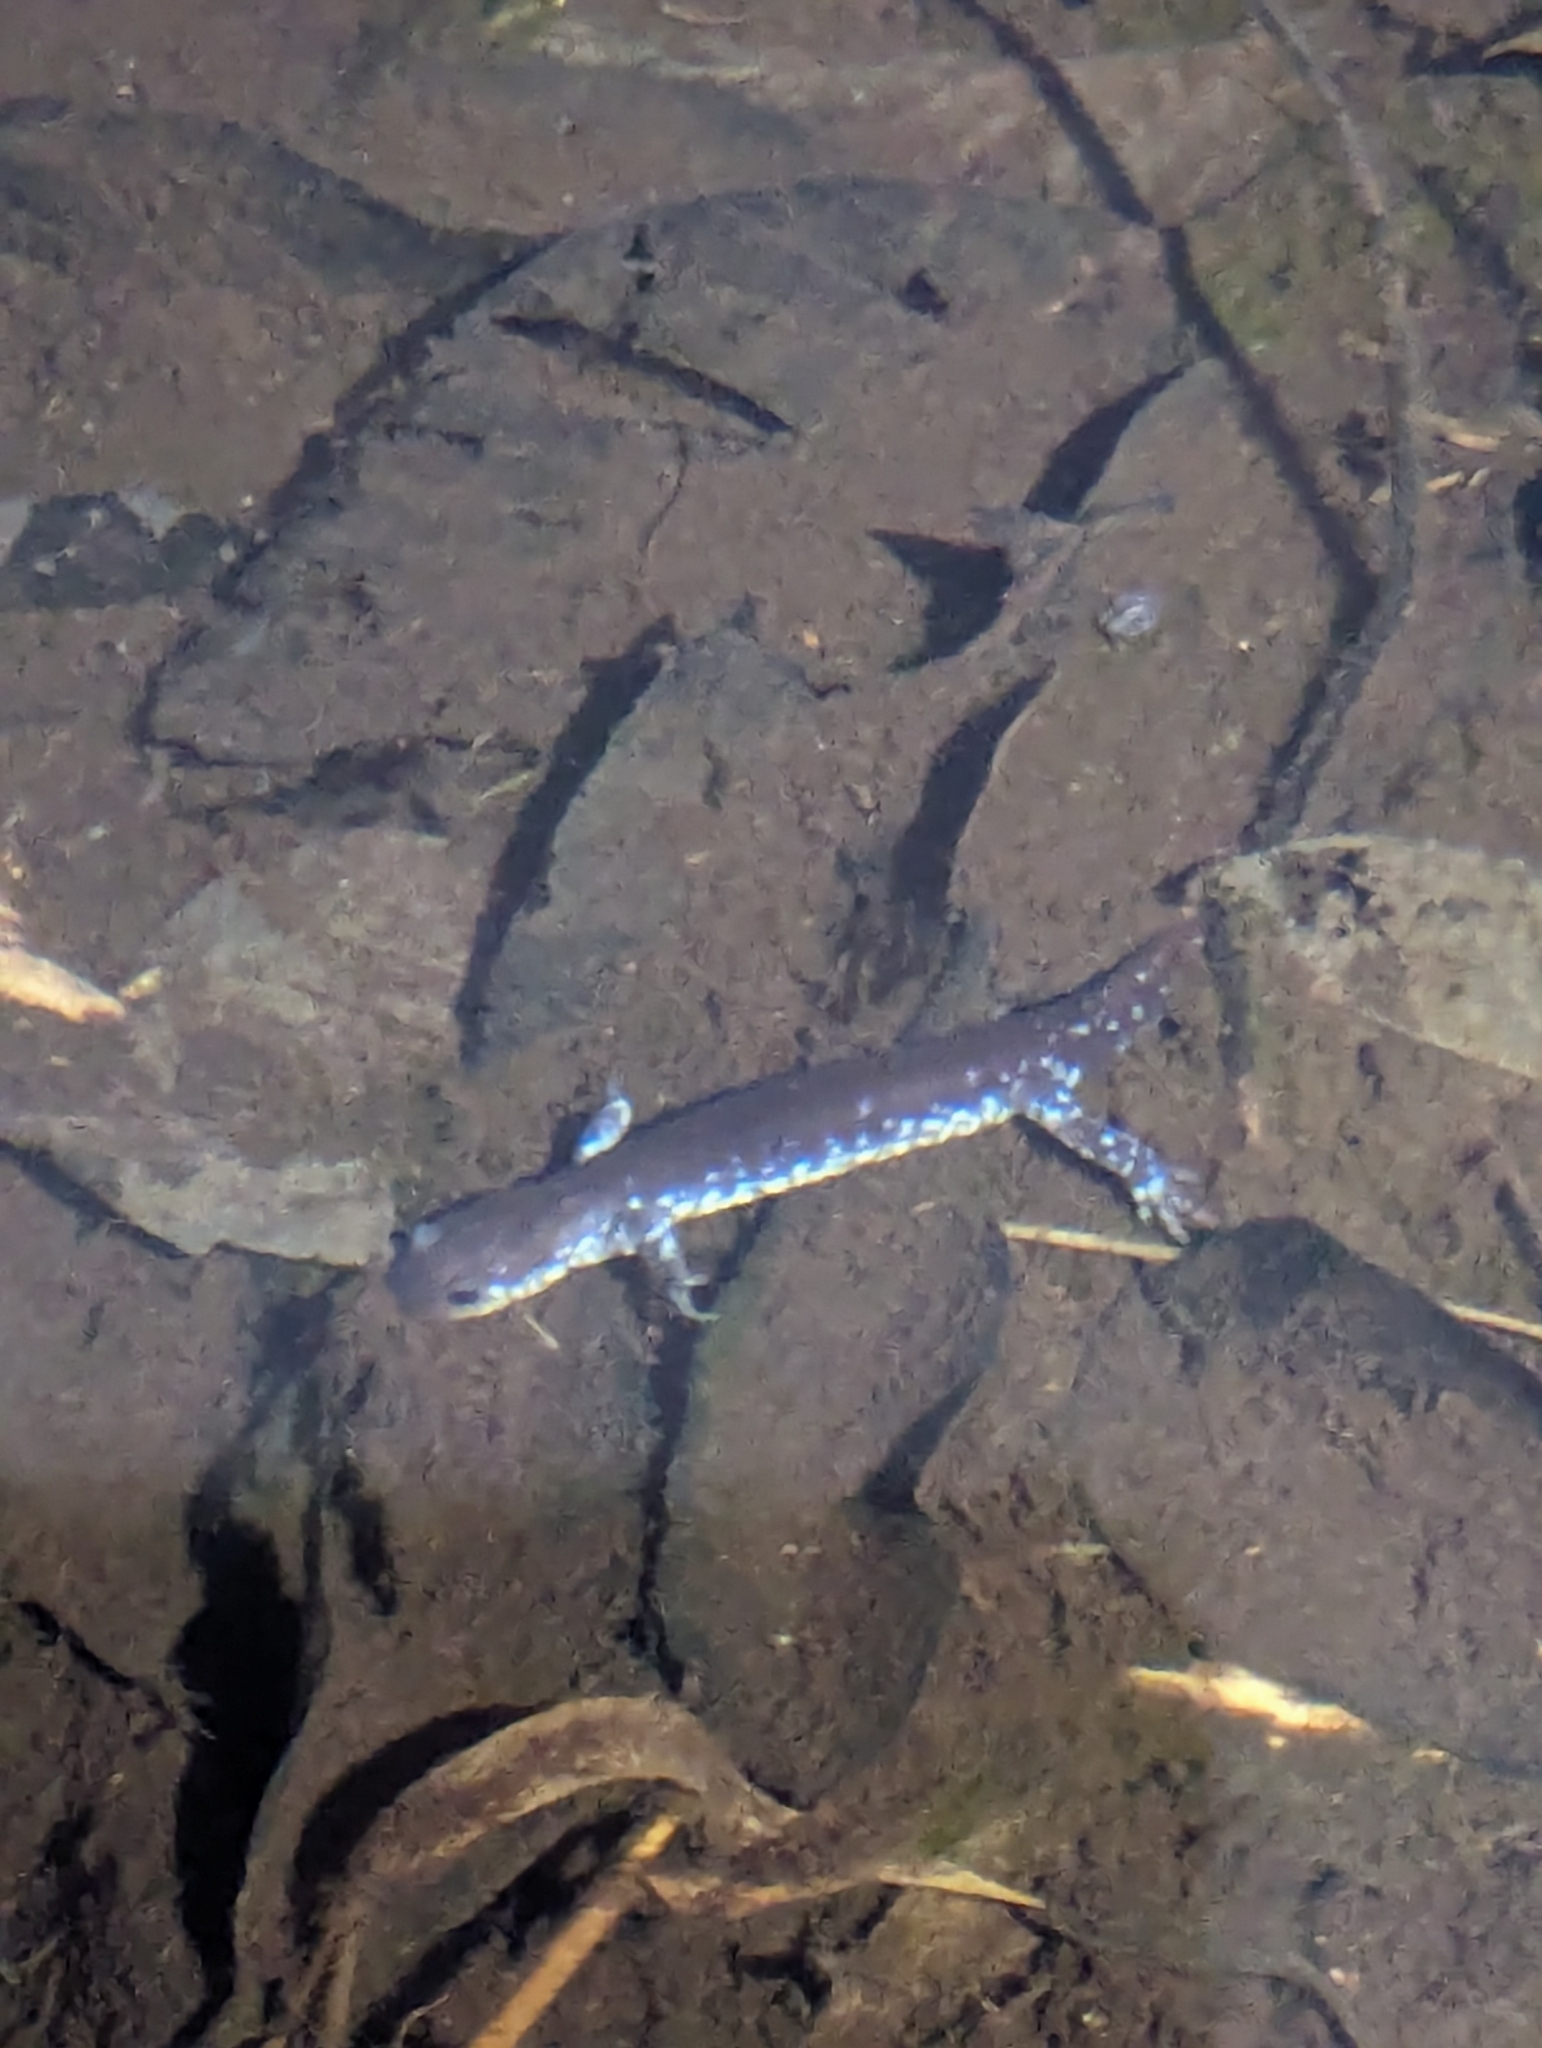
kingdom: Animalia
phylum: Chordata
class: Amphibia
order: Caudata
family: Ambystomatidae
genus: Ambystoma
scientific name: Ambystoma laterale
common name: Blue-spotted salamander
